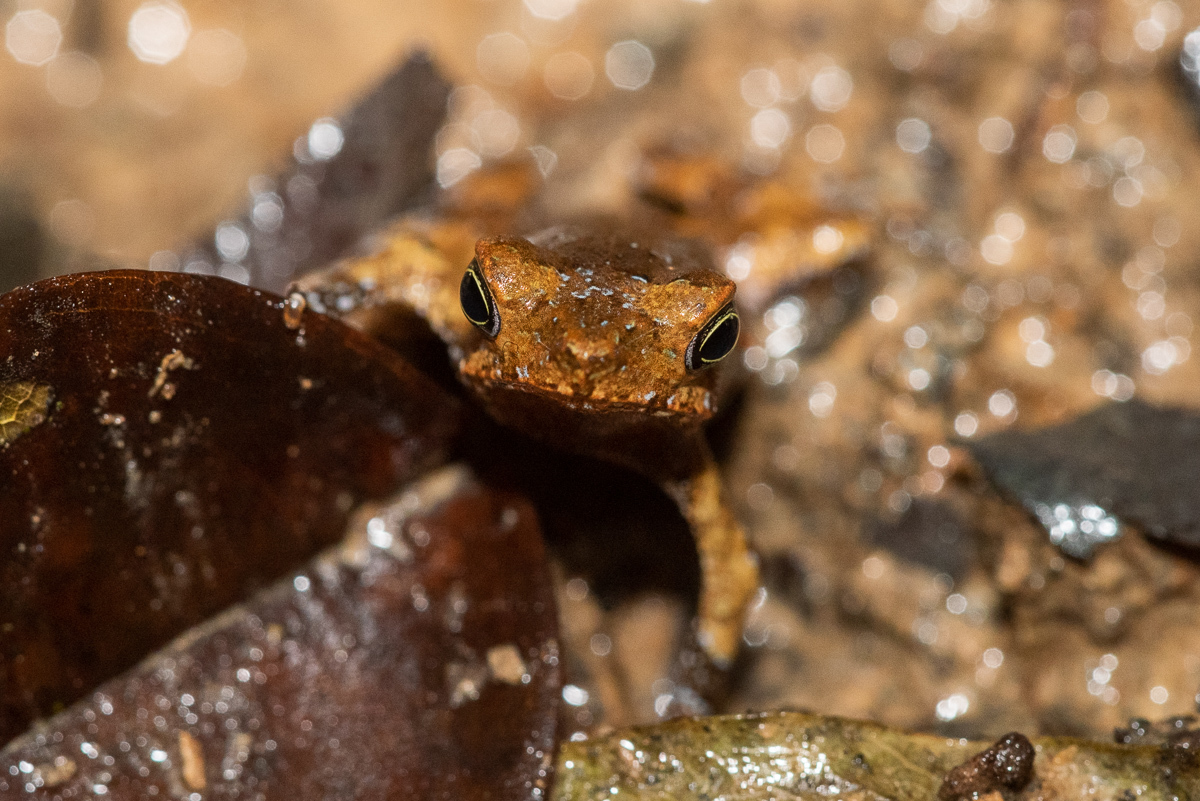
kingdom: Animalia
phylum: Chordata
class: Amphibia
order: Anura
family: Bufonidae
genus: Rhinella
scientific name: Rhinella margaritifera
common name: Mitred toad
